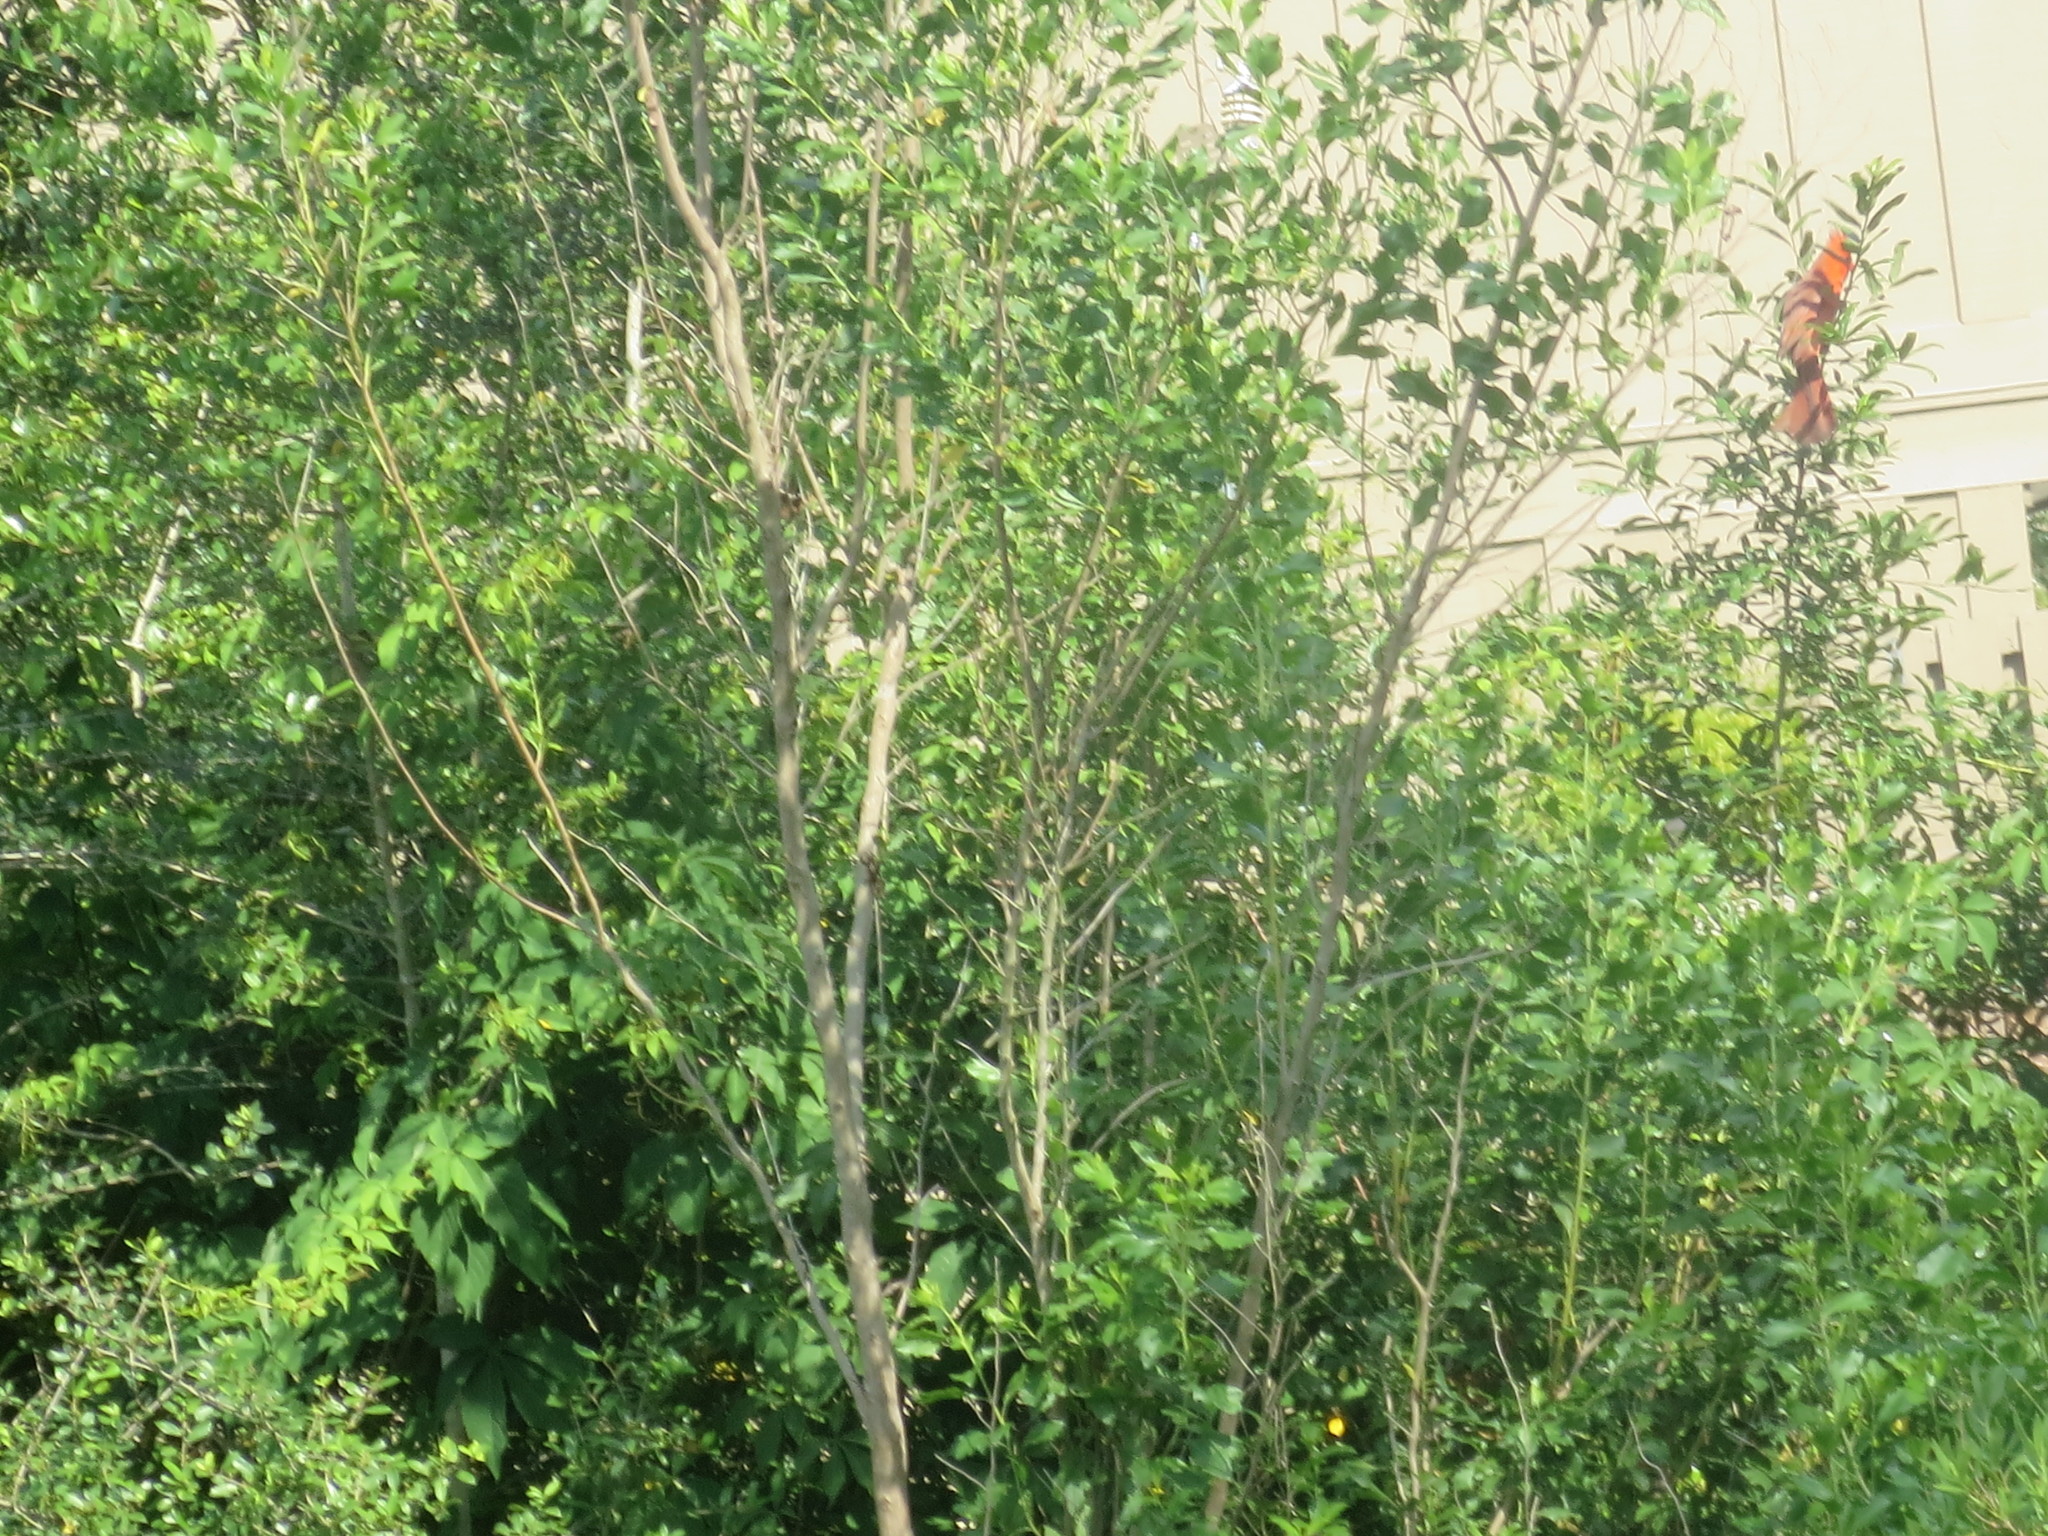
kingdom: Plantae
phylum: Tracheophyta
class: Magnoliopsida
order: Asterales
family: Asteraceae
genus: Baccharis
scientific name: Baccharis halimifolia
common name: Eastern baccharis
